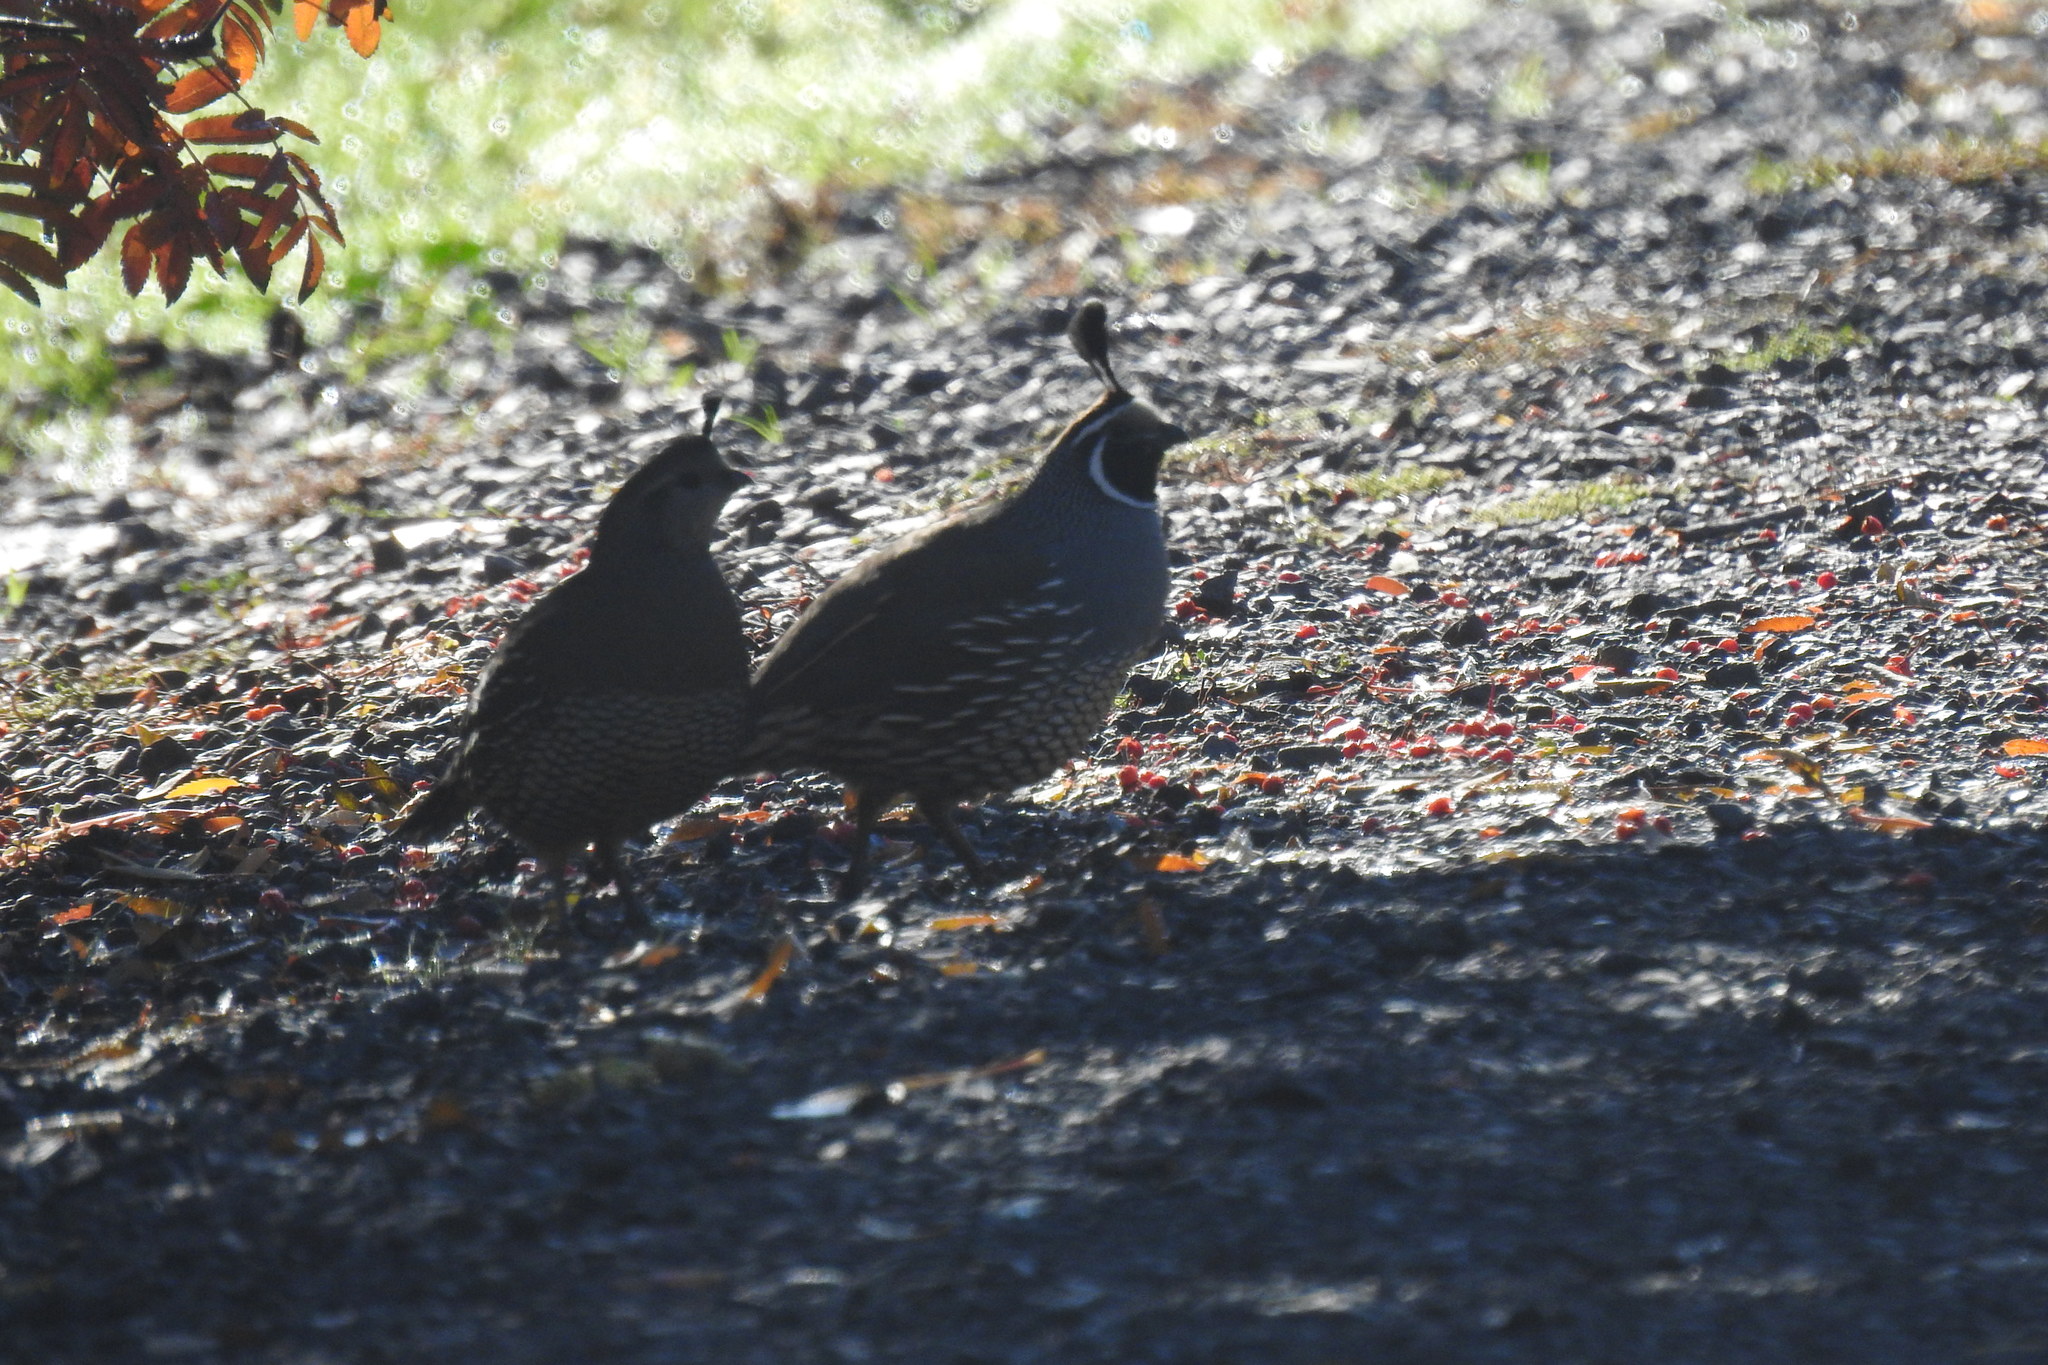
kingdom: Animalia
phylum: Chordata
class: Aves
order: Galliformes
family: Odontophoridae
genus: Callipepla
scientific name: Callipepla californica
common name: California quail
